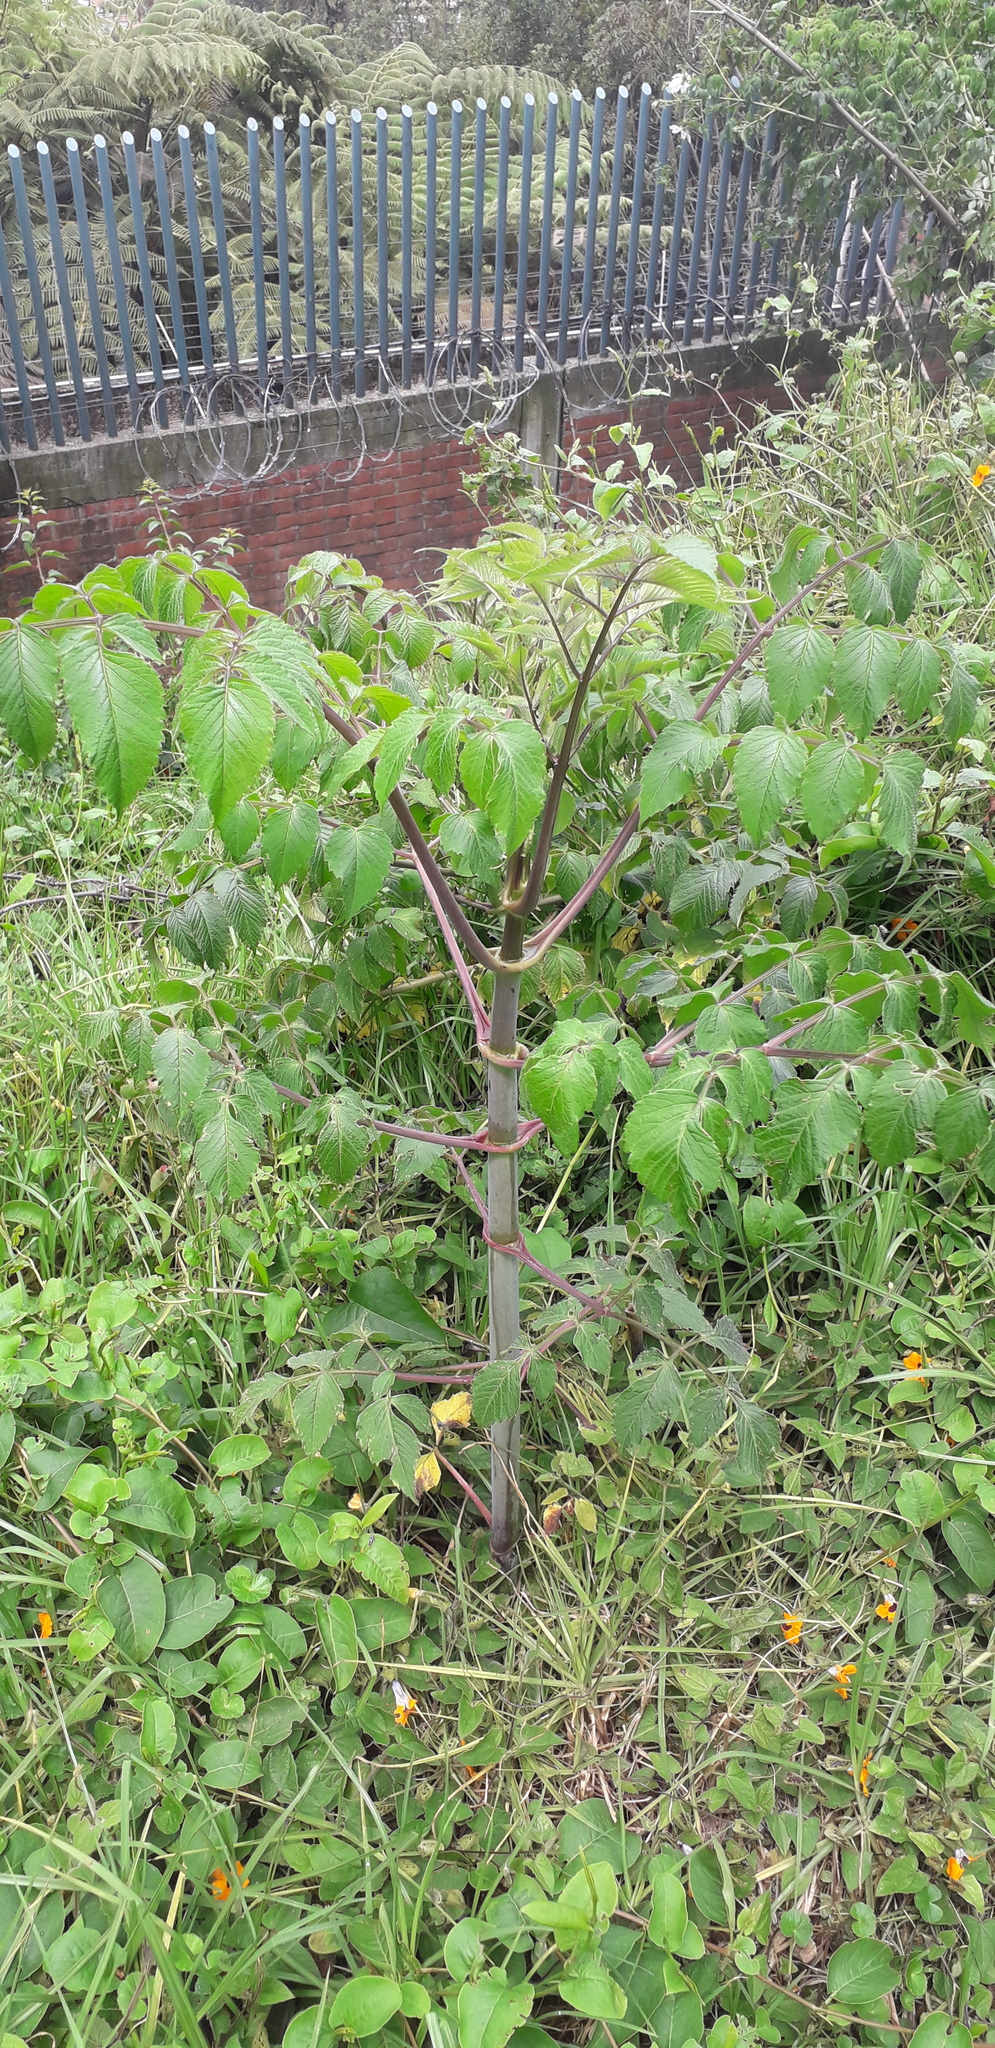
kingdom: Plantae
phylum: Tracheophyta
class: Magnoliopsida
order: Asterales
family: Asteraceae
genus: Dahlia
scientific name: Dahlia imperialis
